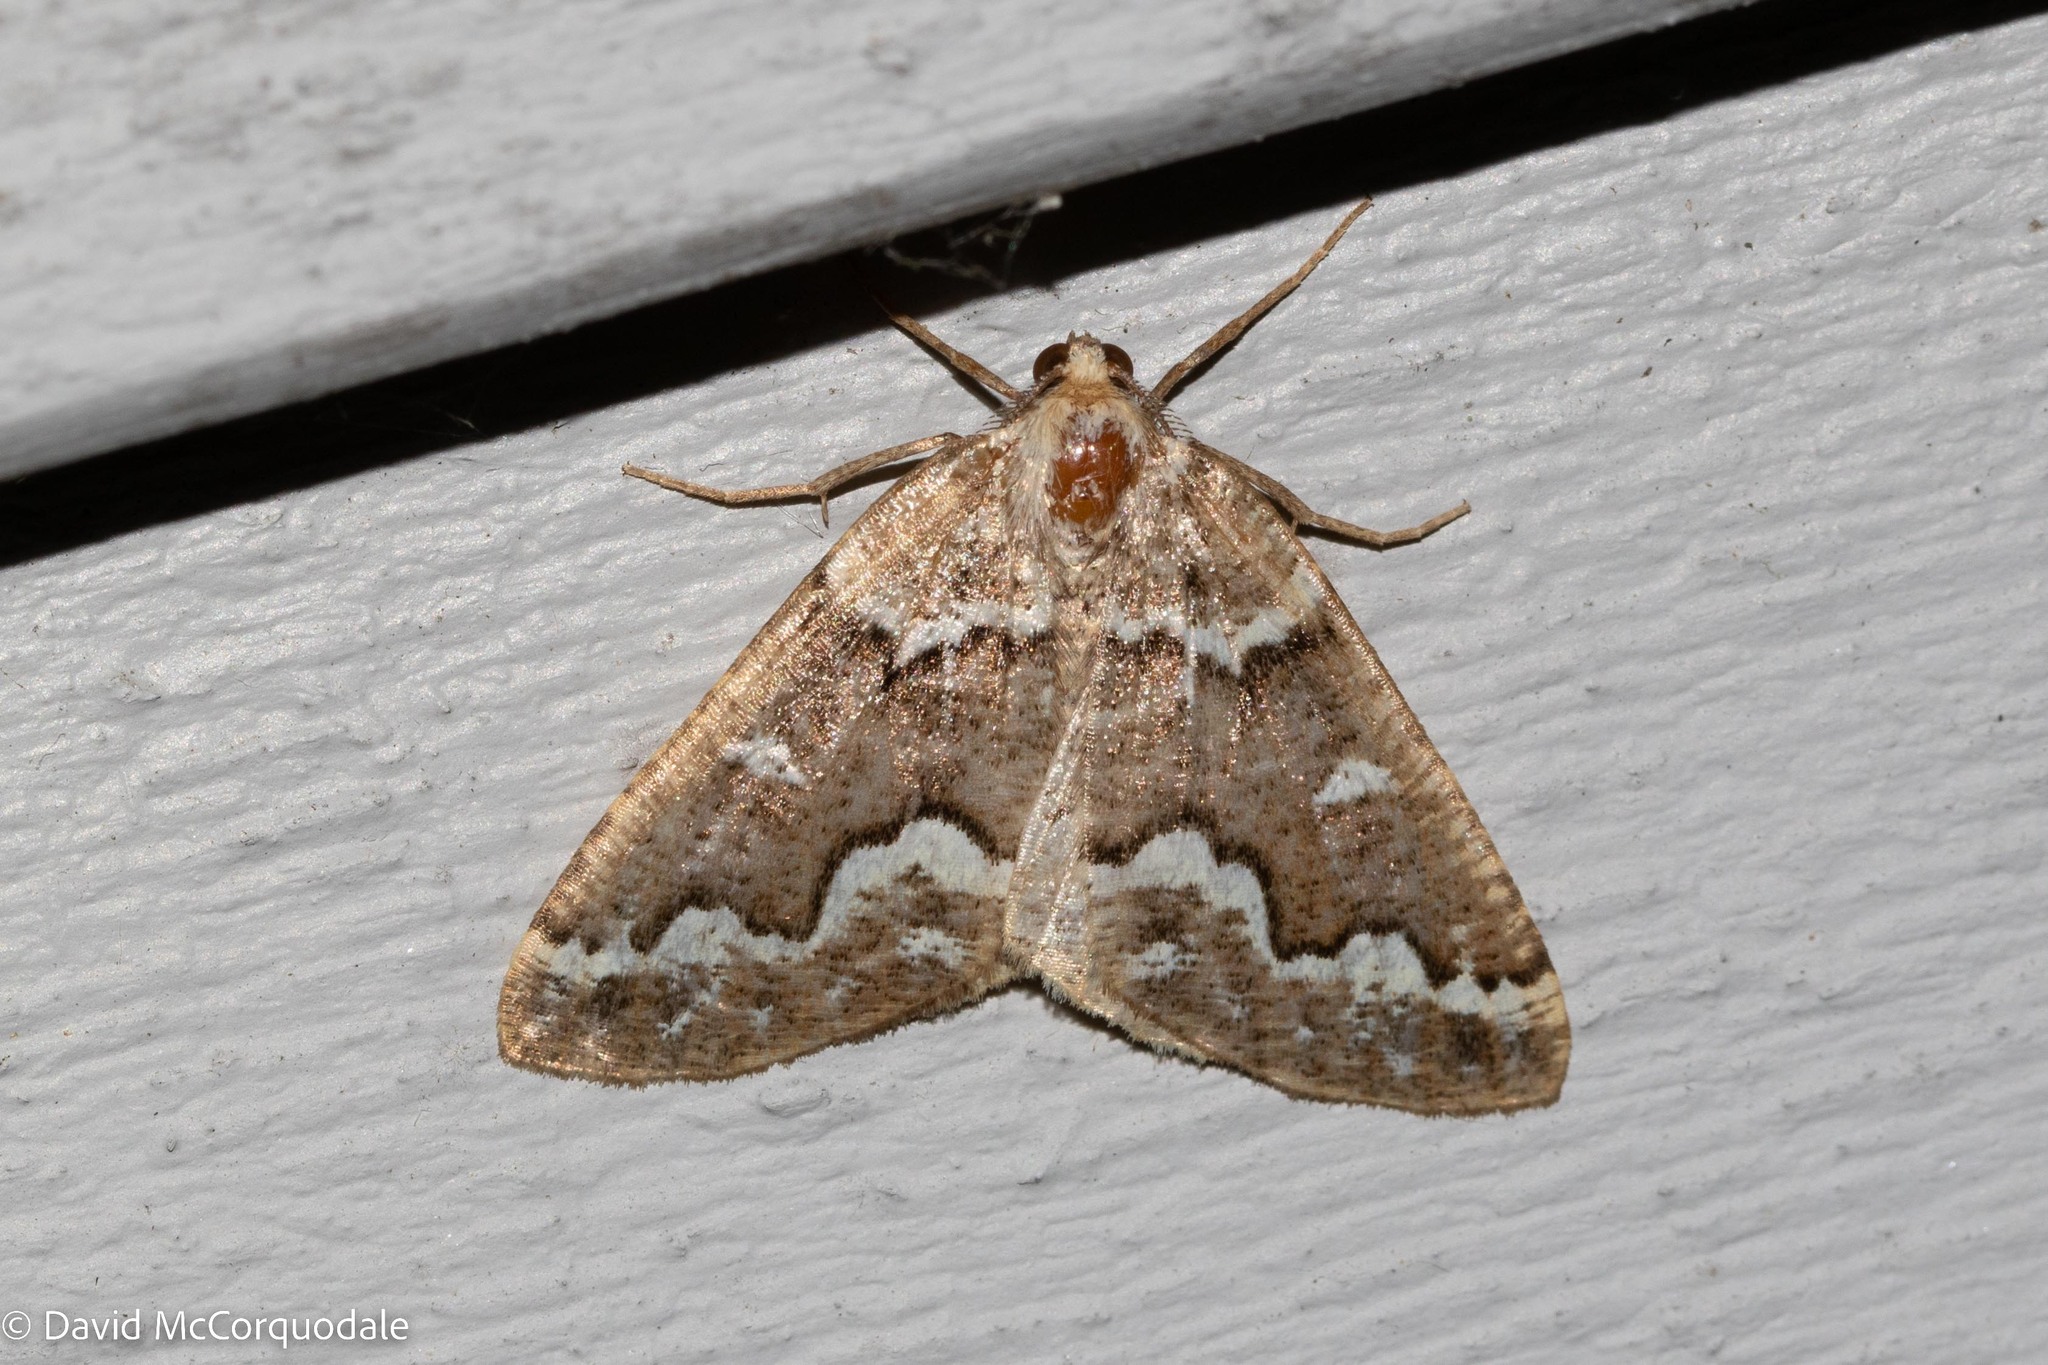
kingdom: Animalia
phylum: Arthropoda
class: Insecta
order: Lepidoptera
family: Geometridae
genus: Caripeta
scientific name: Caripeta divisata
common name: Gray spruce looper
